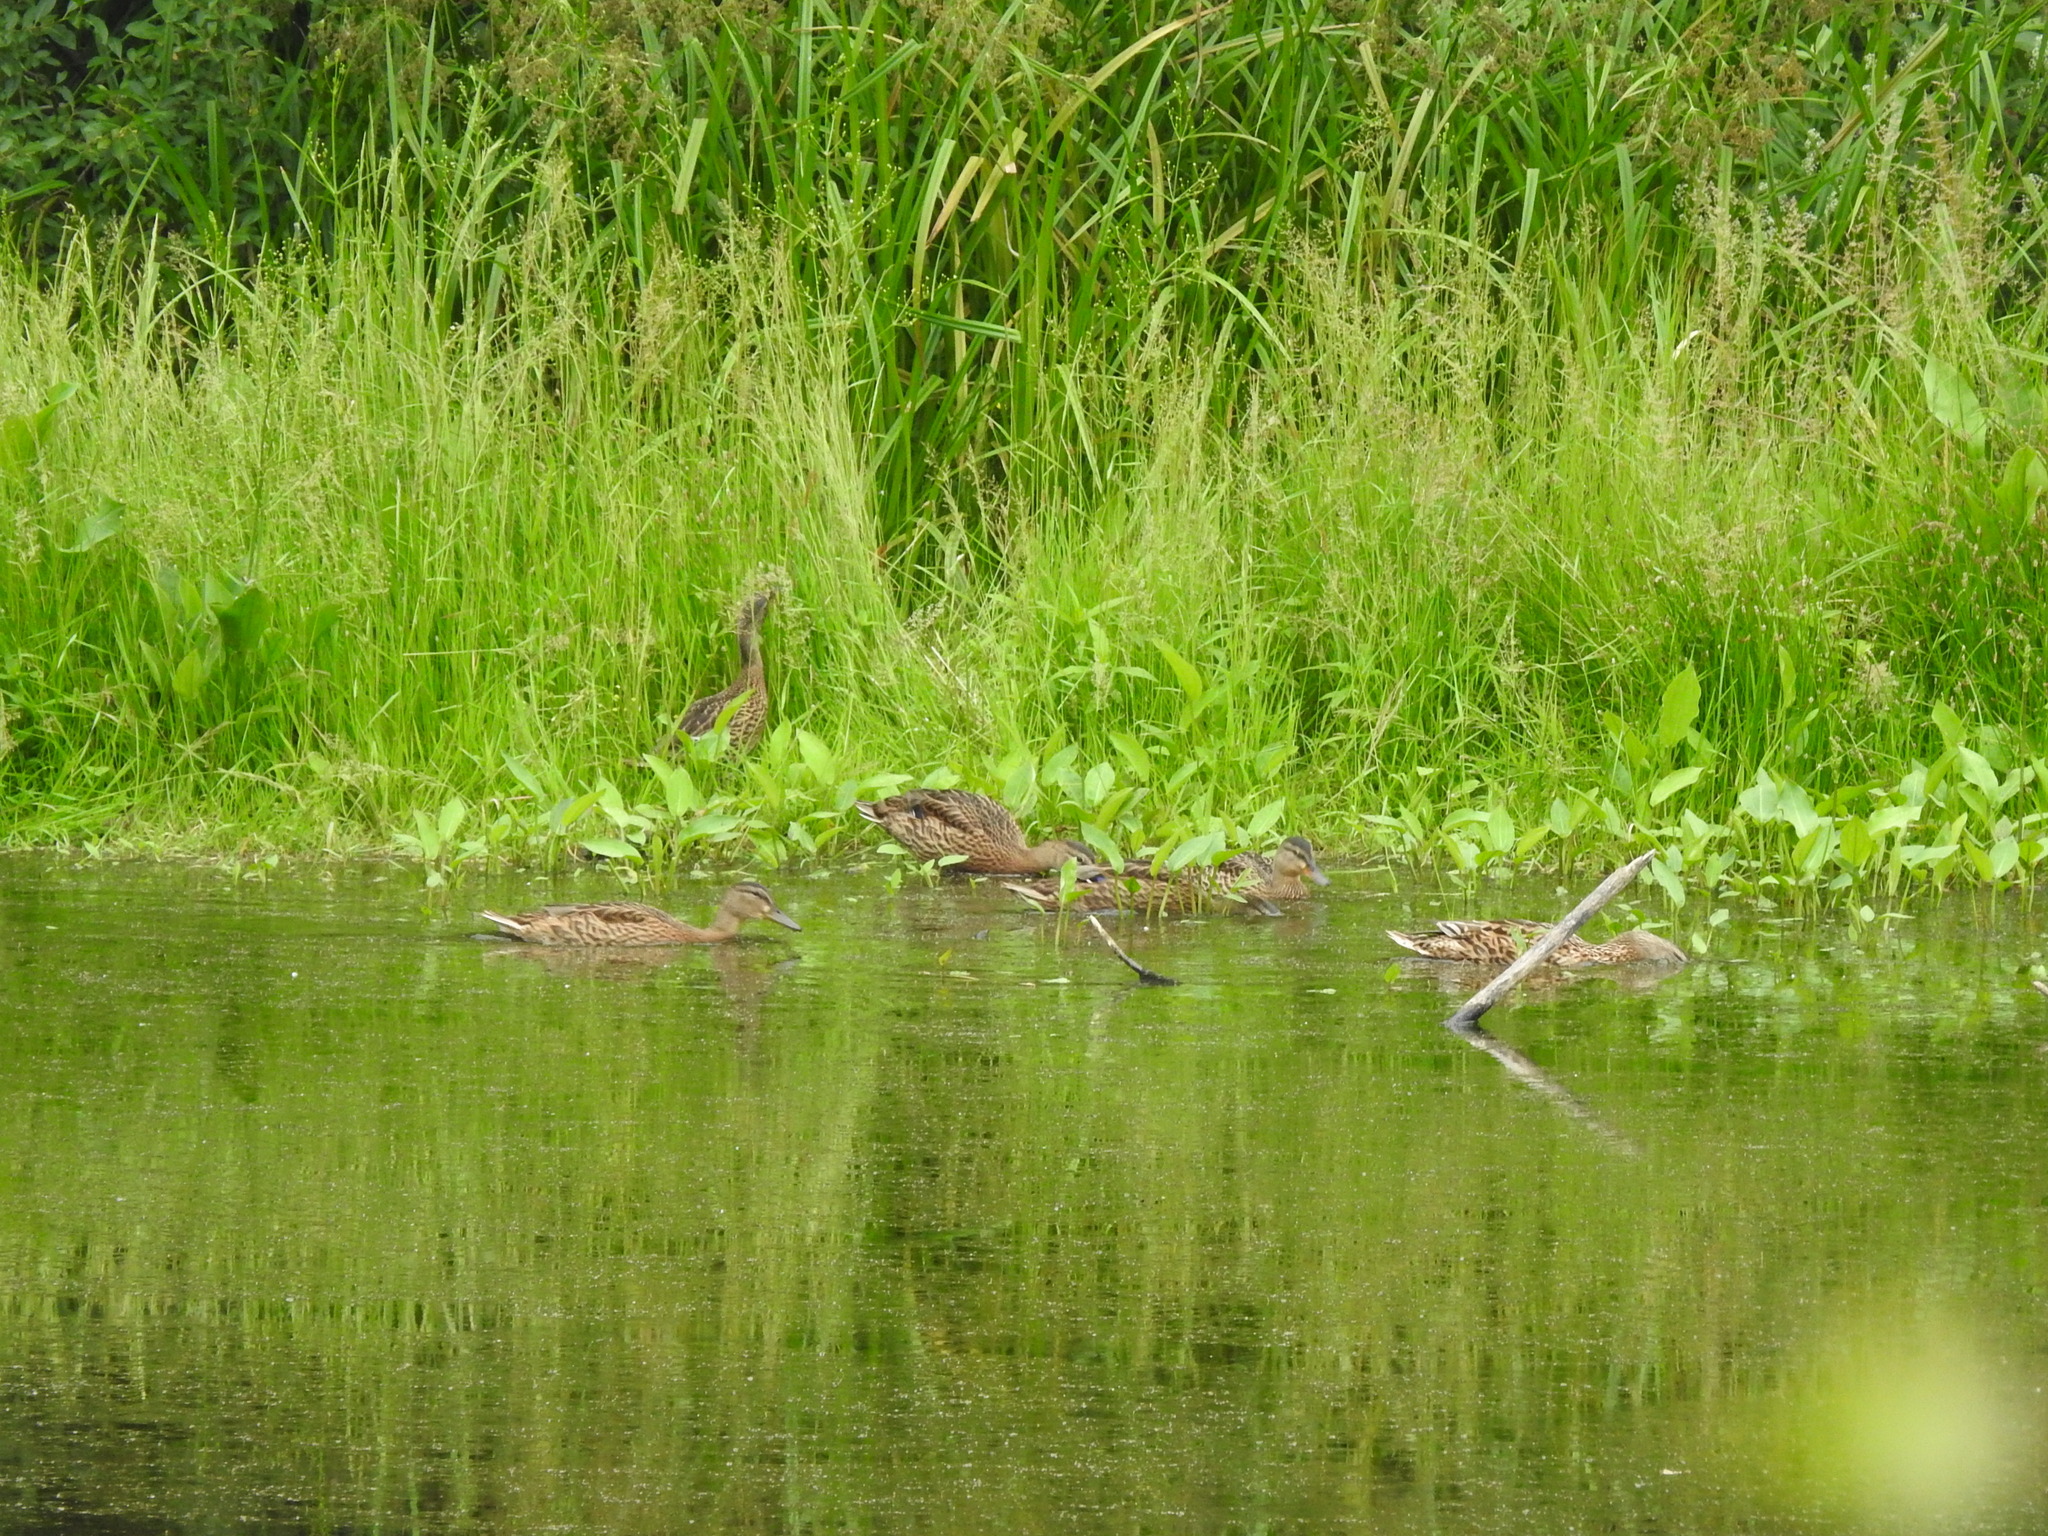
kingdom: Animalia
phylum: Chordata
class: Aves
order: Anseriformes
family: Anatidae
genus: Anas
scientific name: Anas platyrhynchos
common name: Mallard
